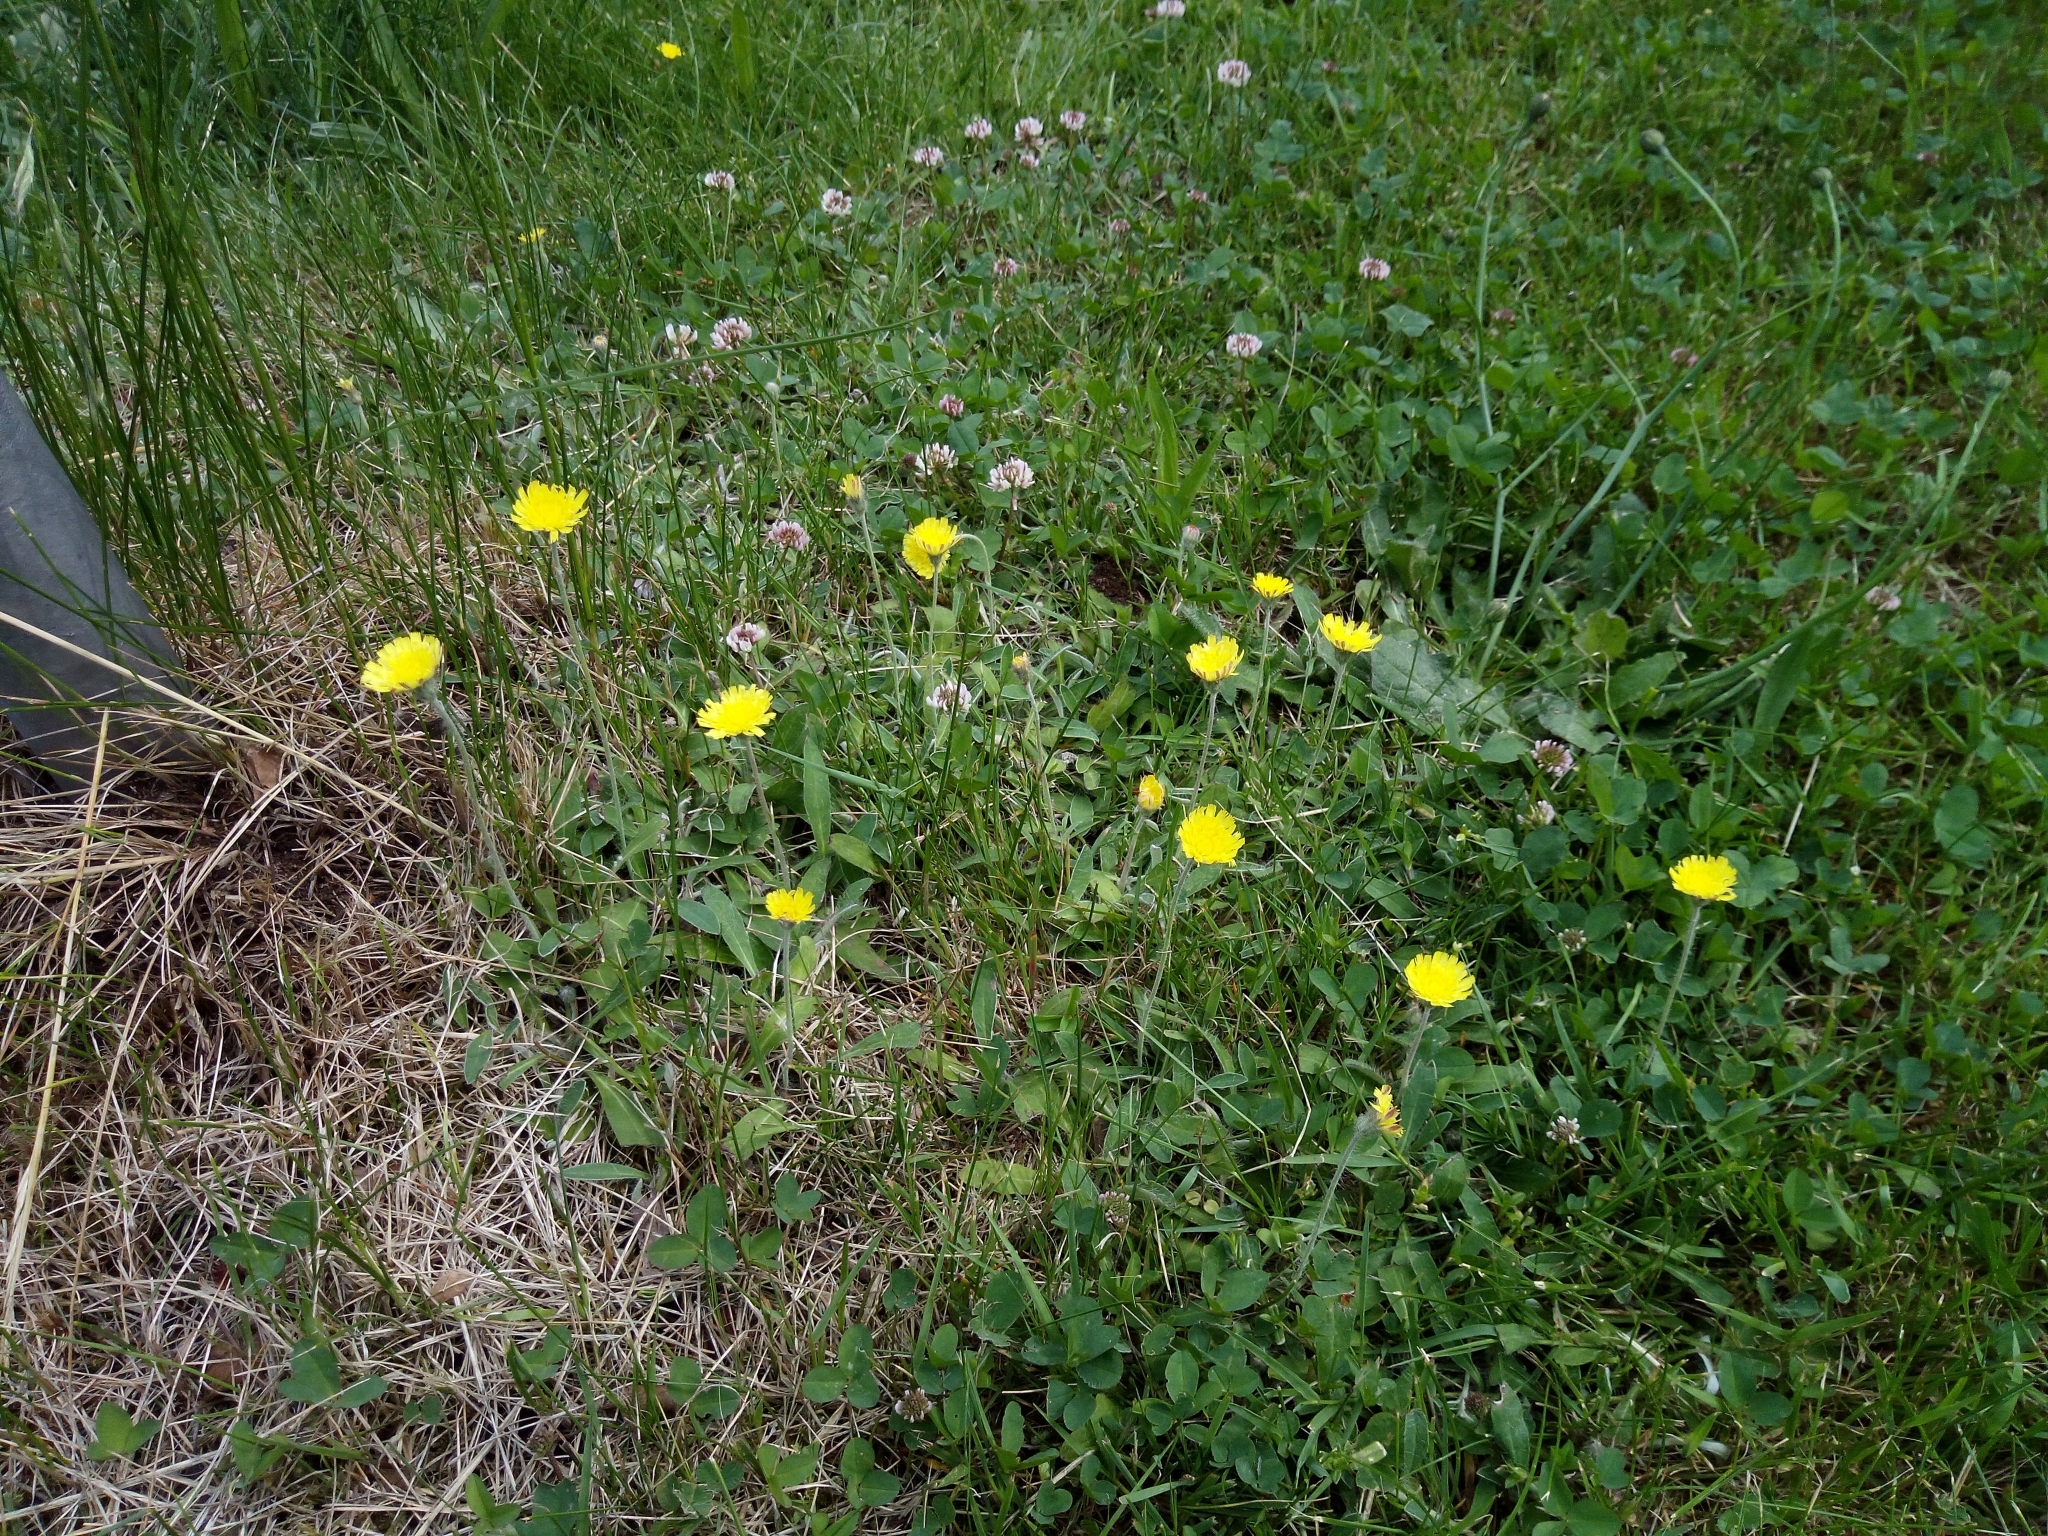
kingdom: Plantae
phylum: Tracheophyta
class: Magnoliopsida
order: Asterales
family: Asteraceae
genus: Pilosella
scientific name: Pilosella officinarum
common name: Mouse-ear hawkweed
